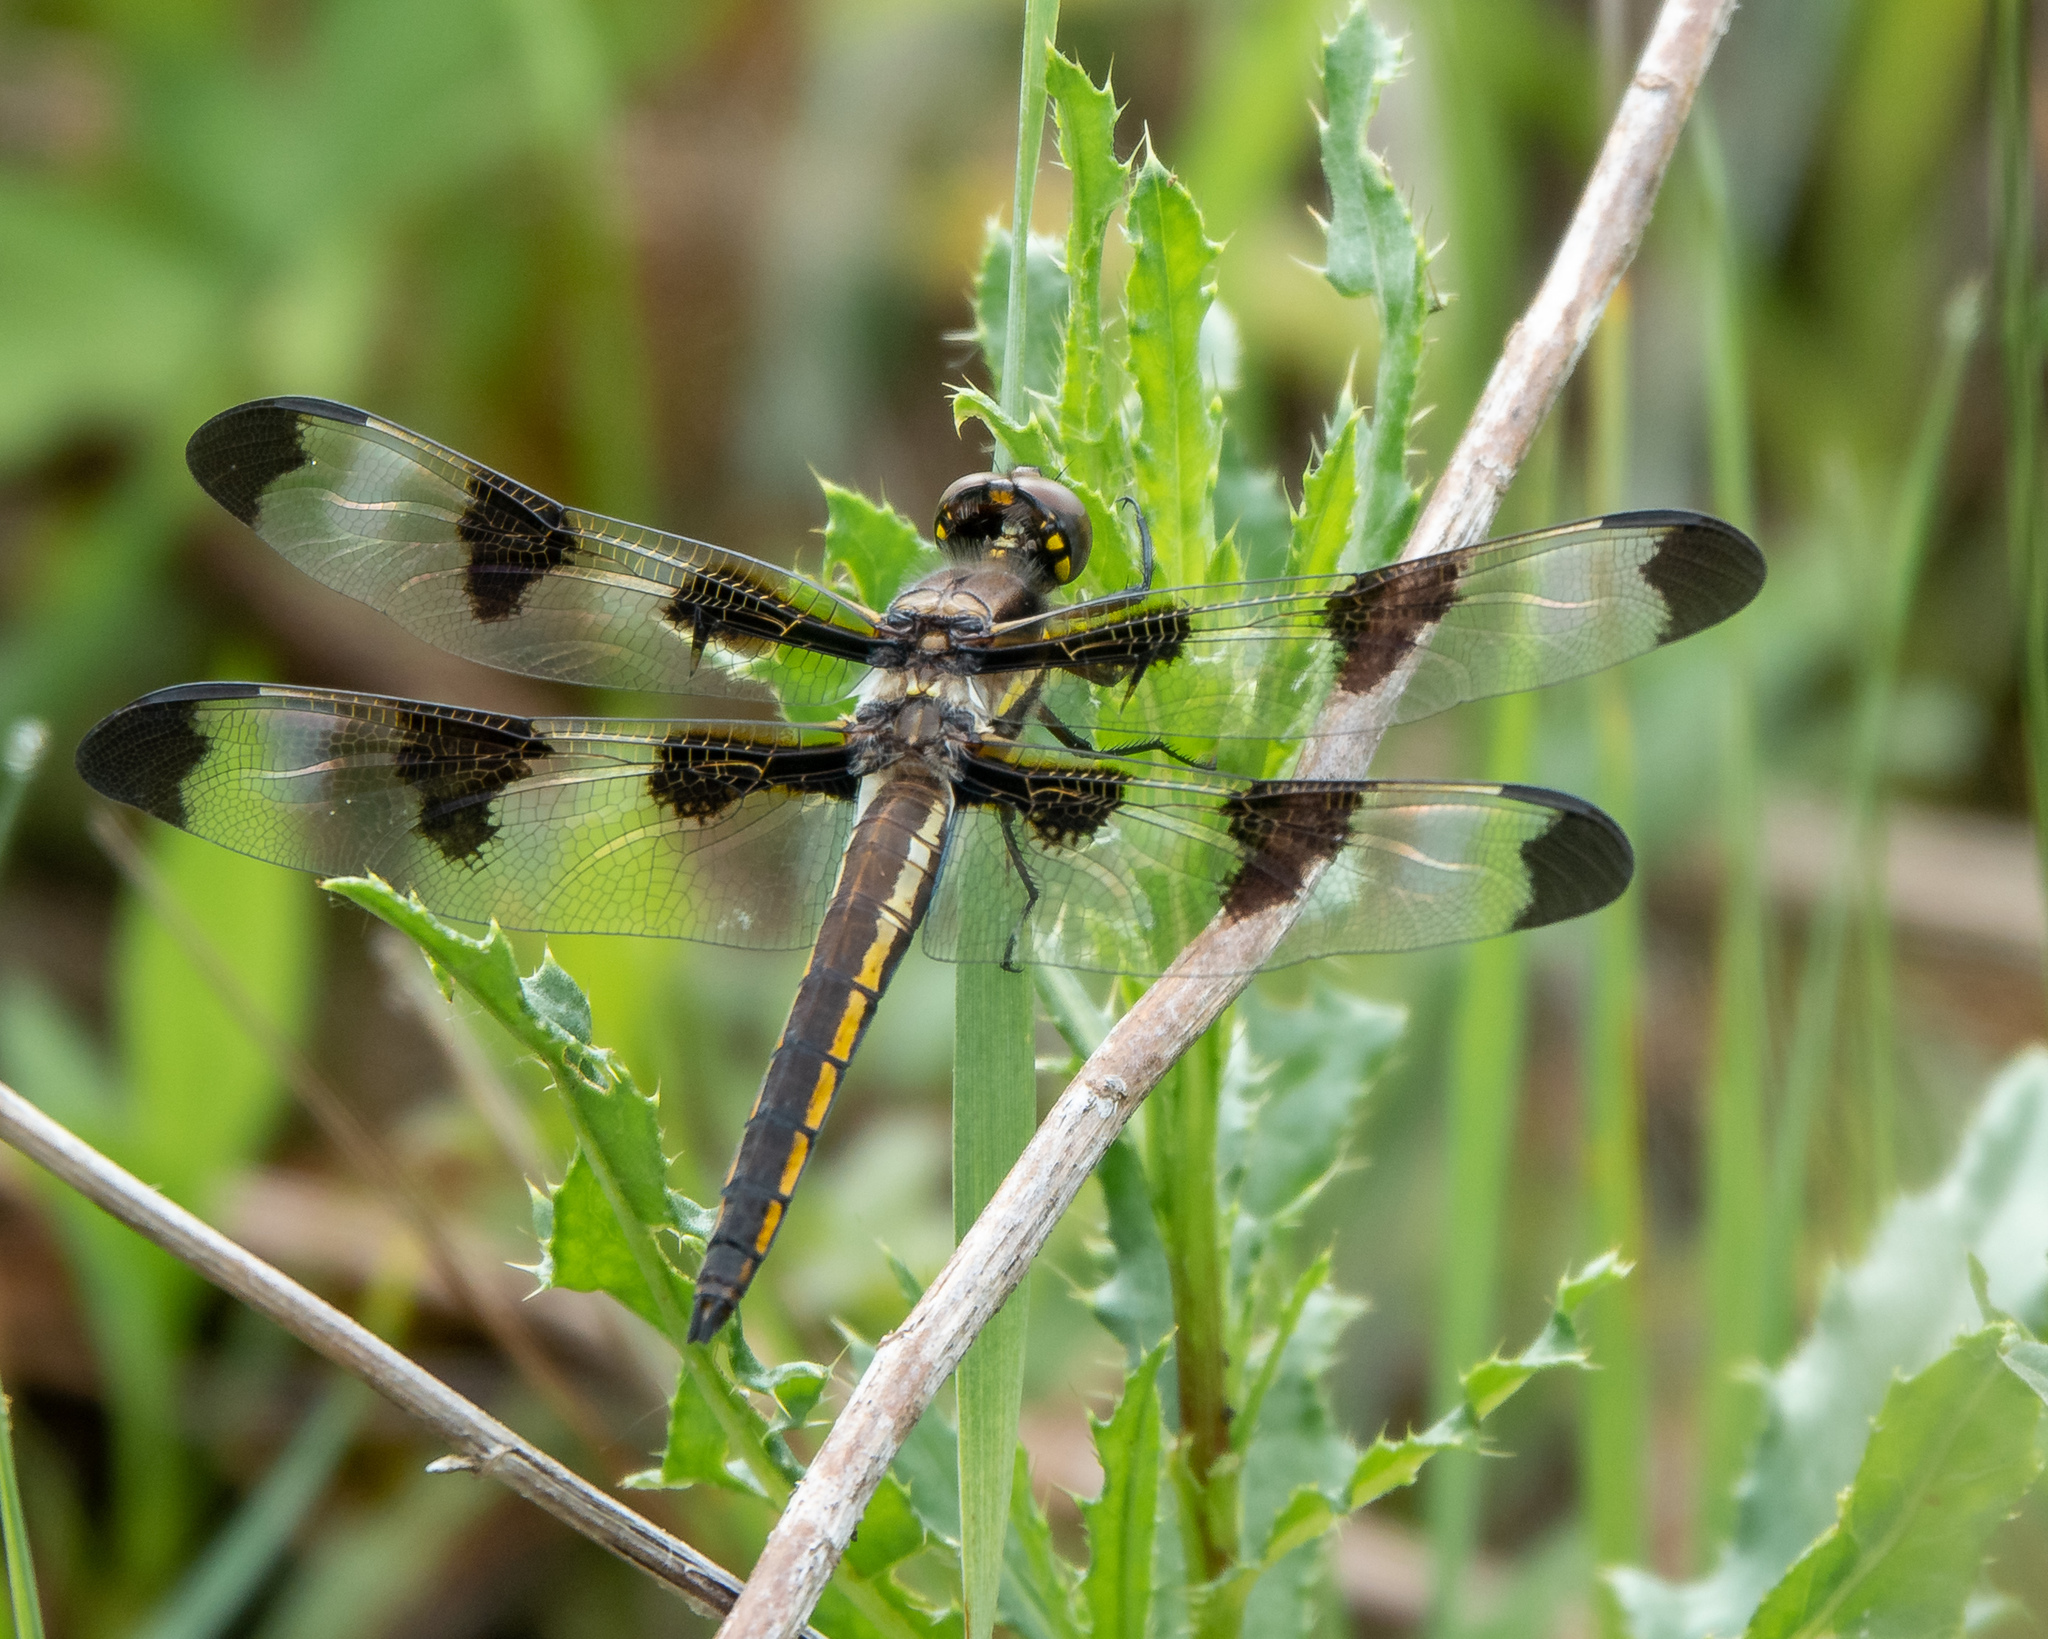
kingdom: Animalia
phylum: Arthropoda
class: Insecta
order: Odonata
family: Libellulidae
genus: Libellula
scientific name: Libellula pulchella
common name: Twelve-spotted skimmer
